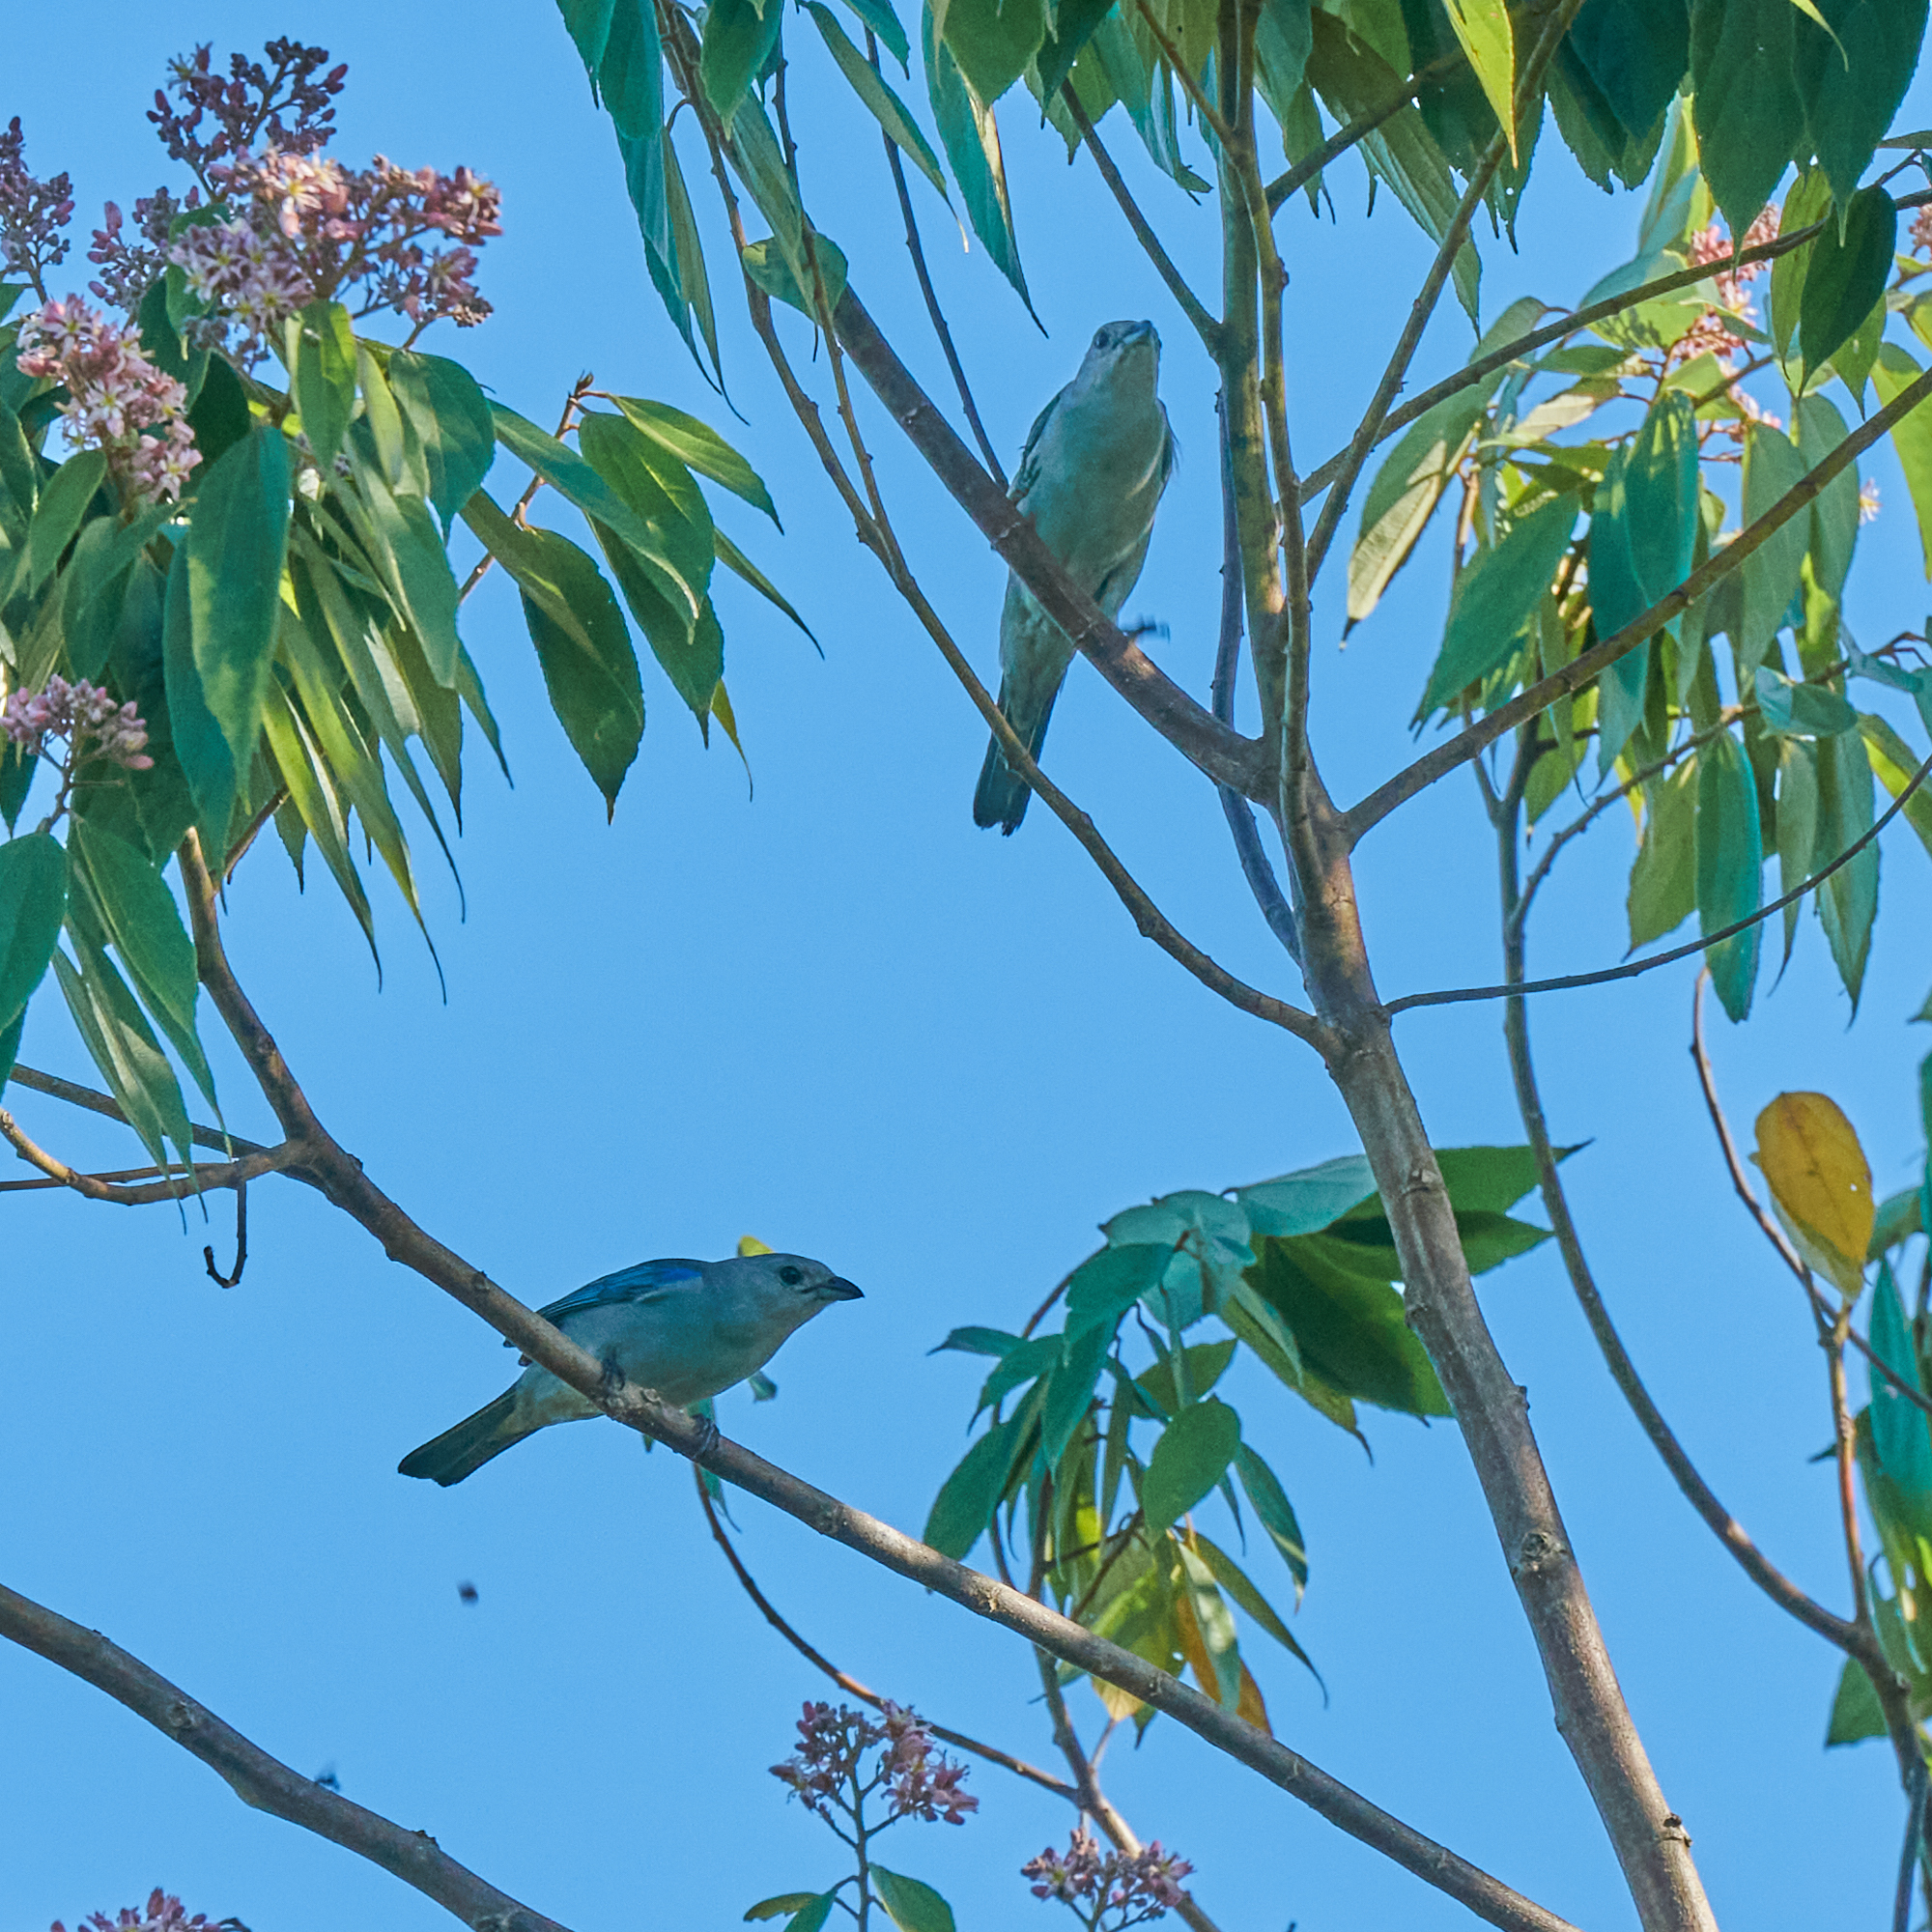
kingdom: Animalia
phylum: Chordata
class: Aves
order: Passeriformes
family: Thraupidae
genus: Thraupis
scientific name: Thraupis episcopus
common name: Blue-grey tanager
